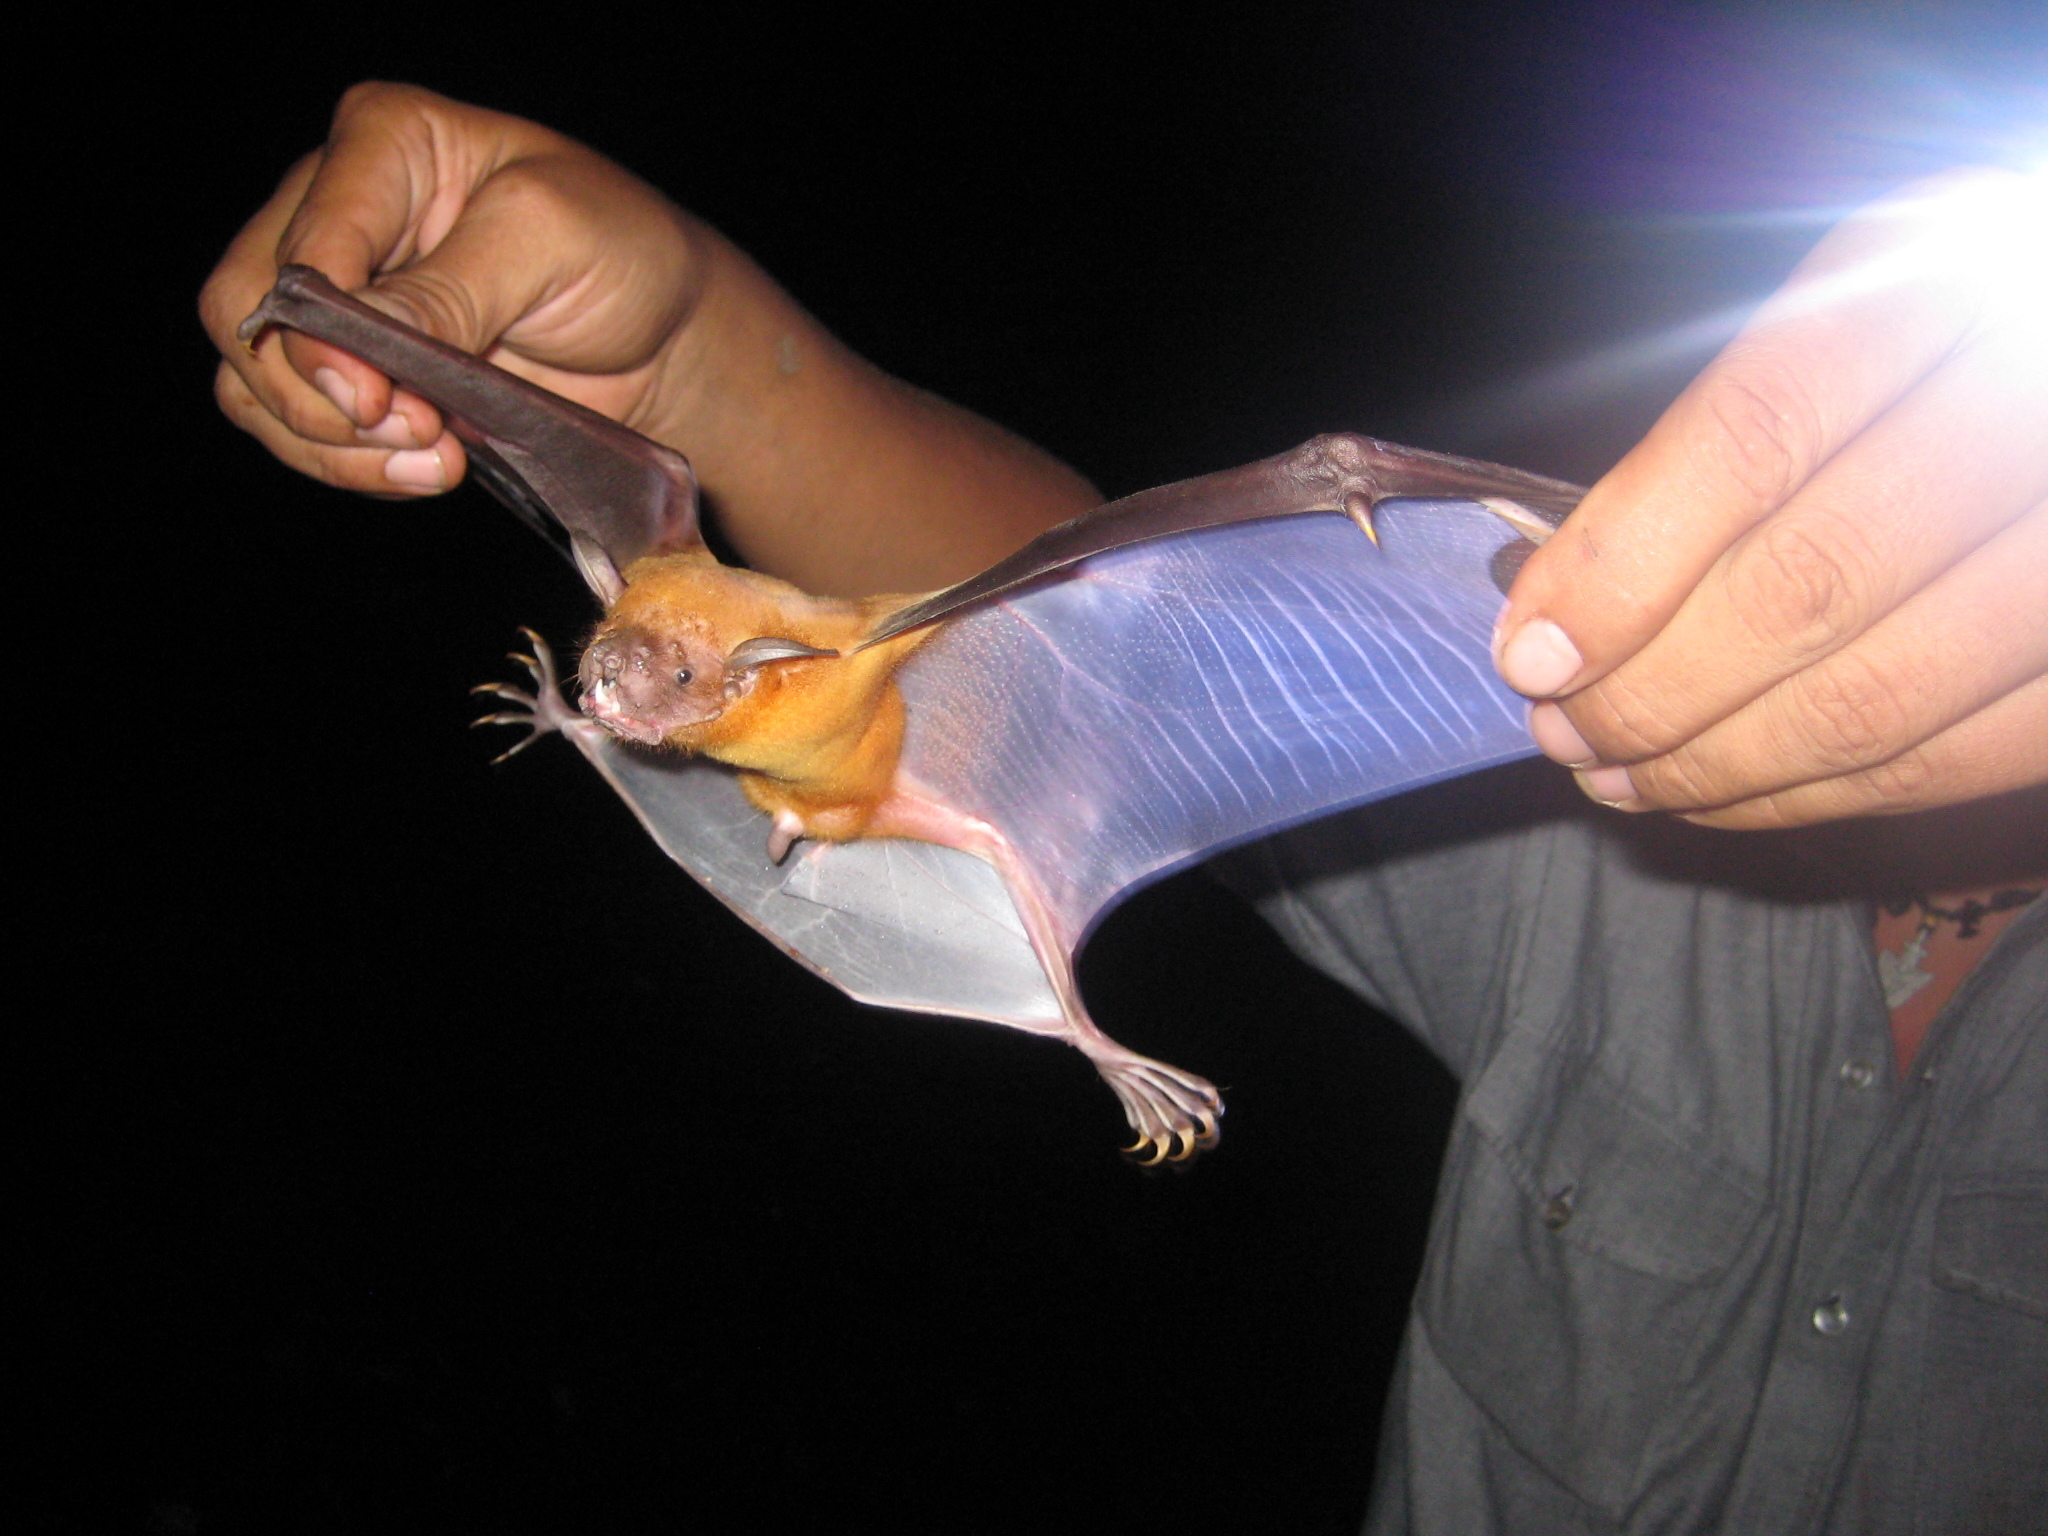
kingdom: Animalia
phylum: Chordata
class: Mammalia
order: Chiroptera
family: Noctilionidae
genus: Noctilio
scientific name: Noctilio leporinus
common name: Greater bulldog bat
